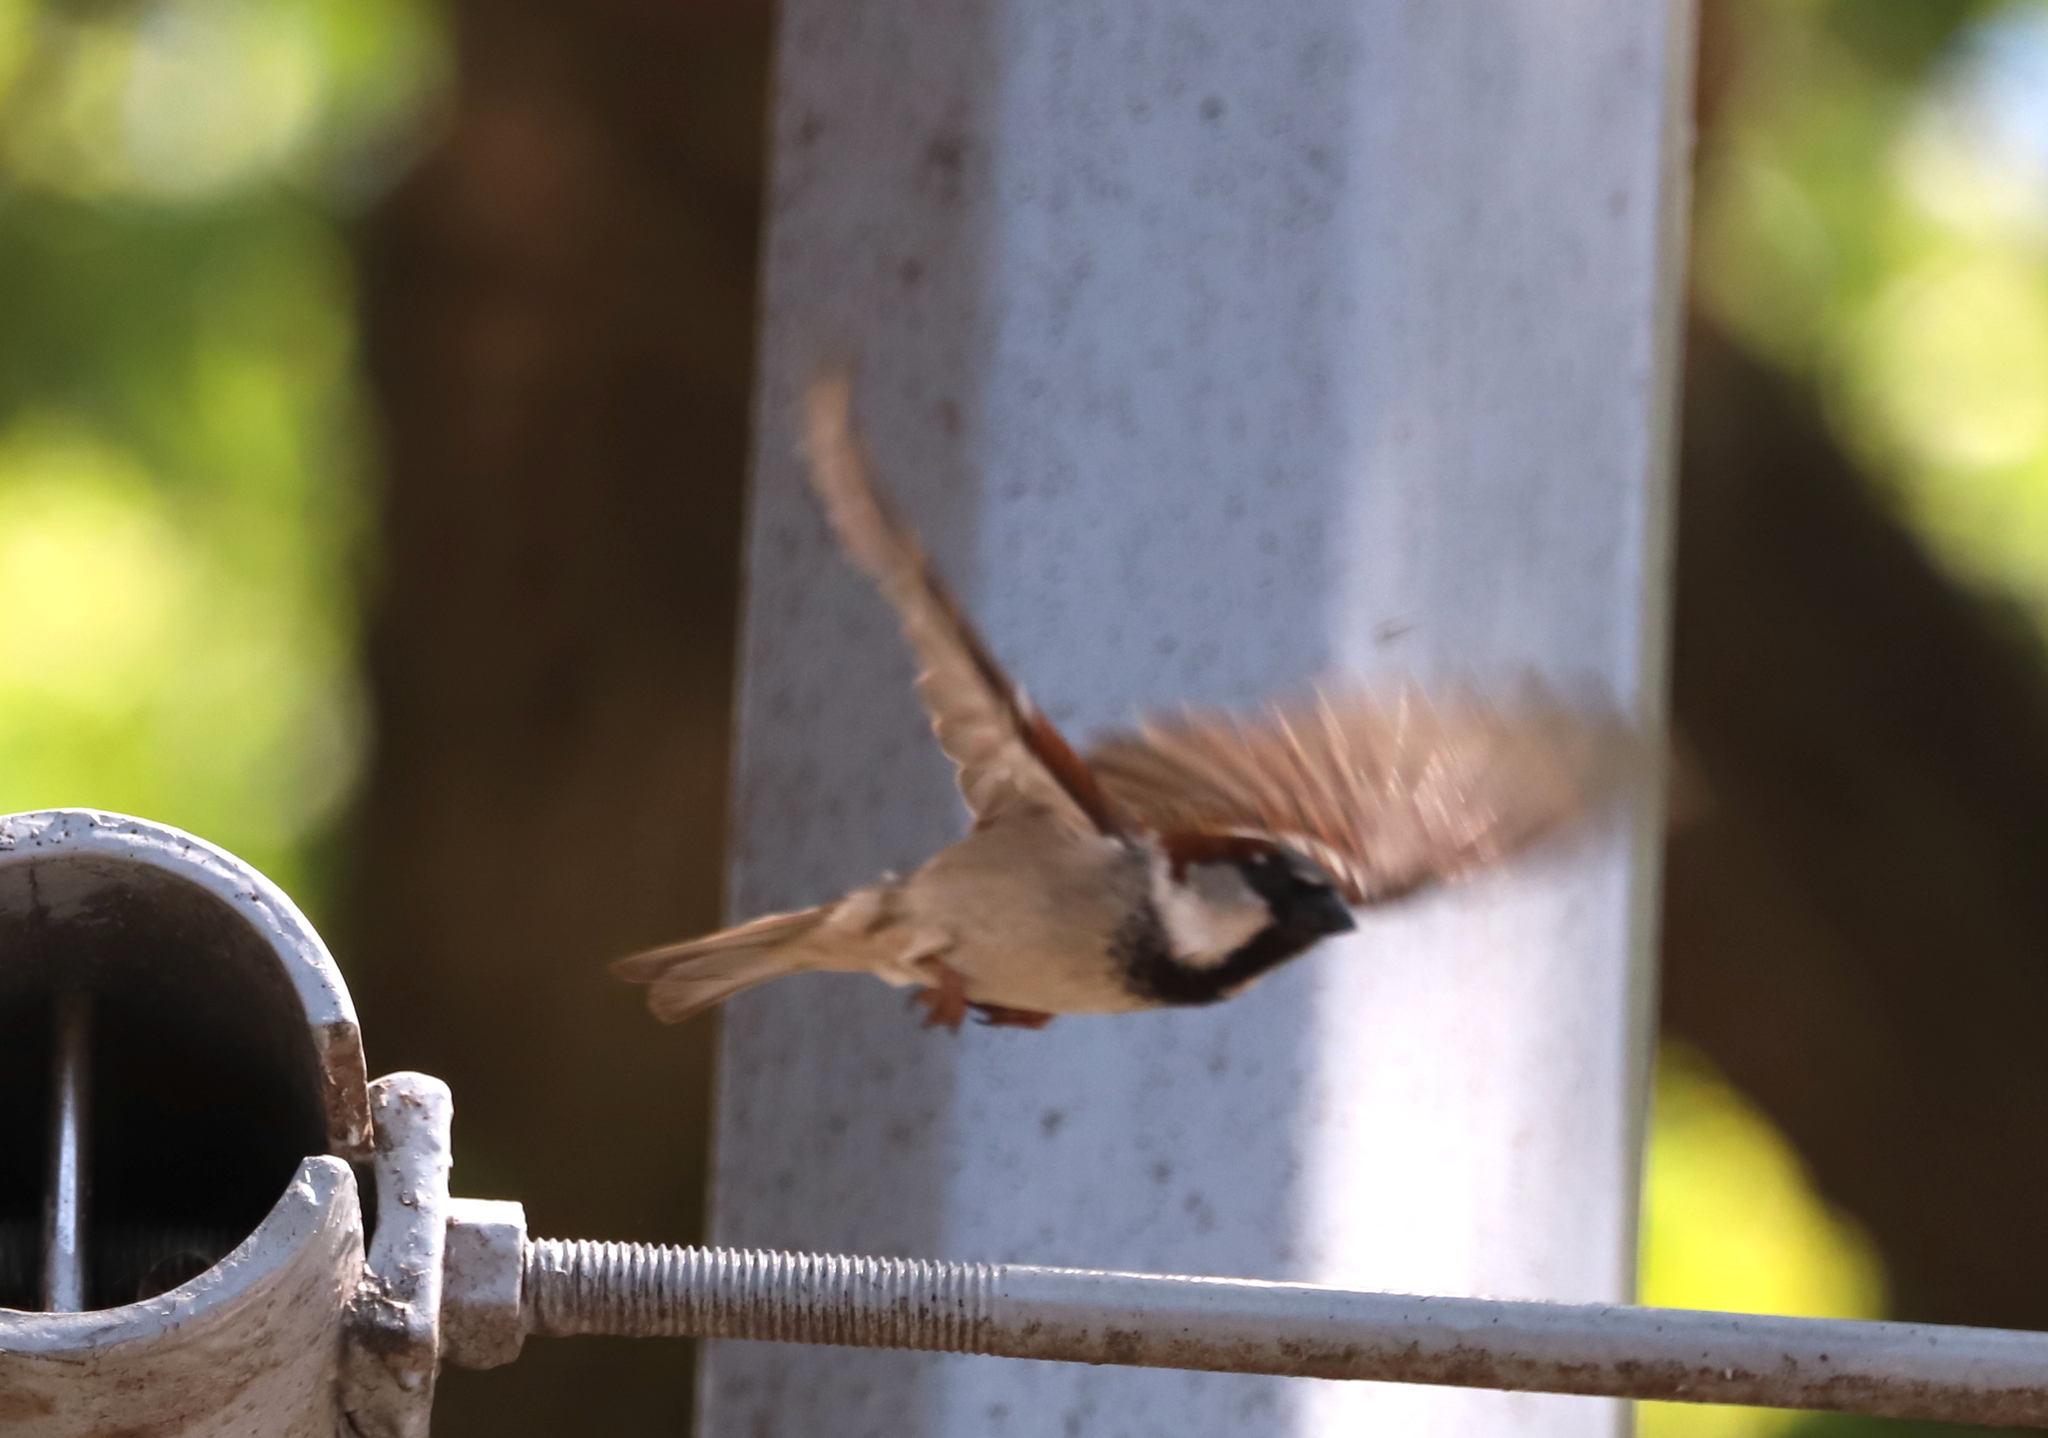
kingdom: Animalia
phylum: Chordata
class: Aves
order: Passeriformes
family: Passeridae
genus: Passer
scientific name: Passer domesticus
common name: House sparrow
